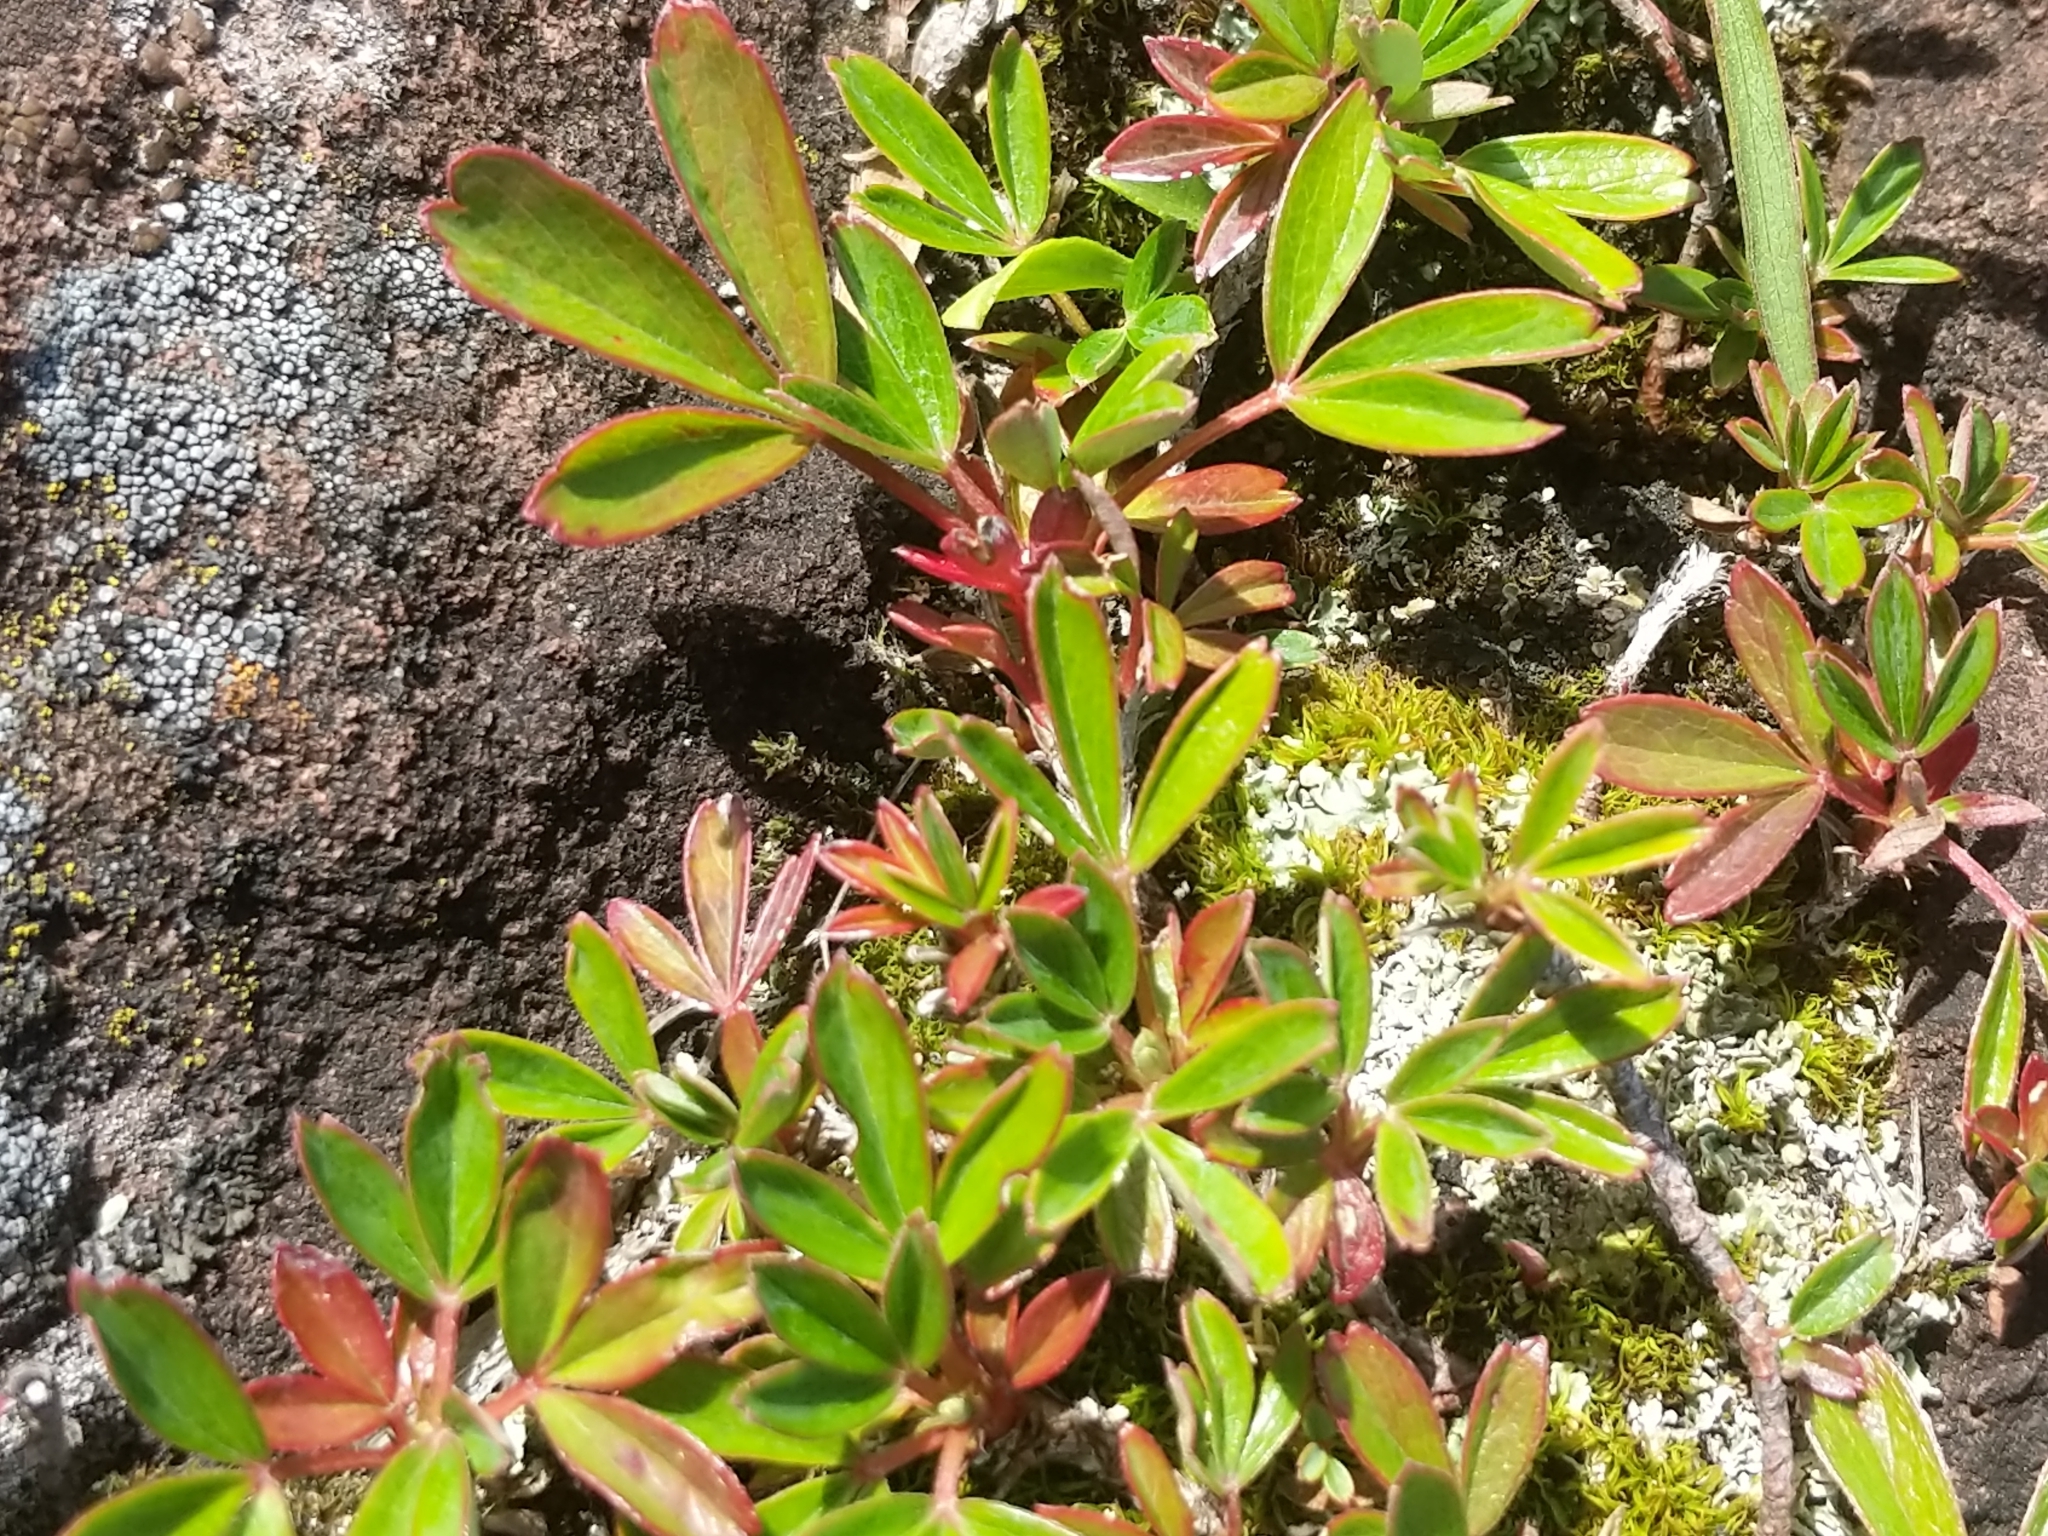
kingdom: Plantae
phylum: Tracheophyta
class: Magnoliopsida
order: Rosales
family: Rosaceae
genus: Sibbaldia
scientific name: Sibbaldia tridentata
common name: Three-toothed cinquefoil
